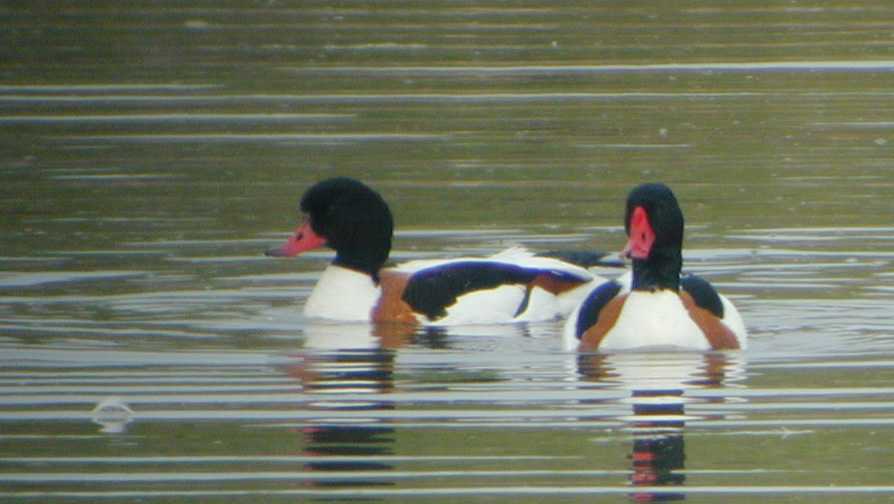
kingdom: Animalia
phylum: Chordata
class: Aves
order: Anseriformes
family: Anatidae
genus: Tadorna
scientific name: Tadorna tadorna
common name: Common shelduck
